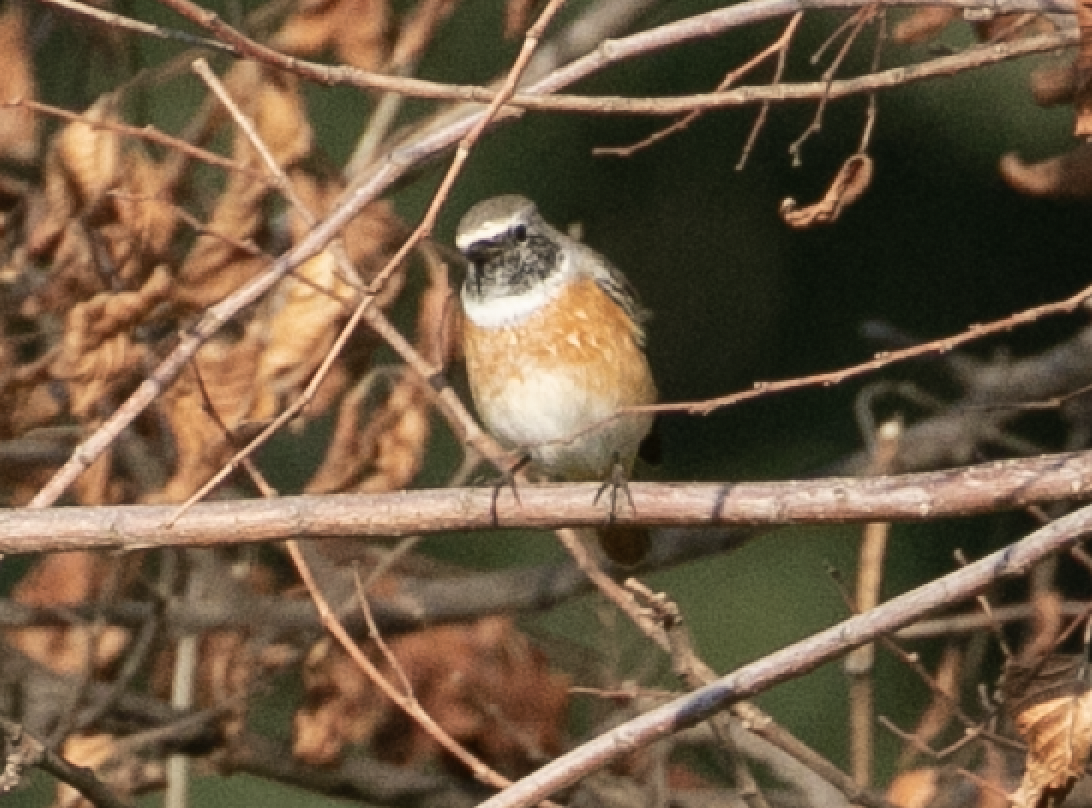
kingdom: Animalia
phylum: Chordata
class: Aves
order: Passeriformes
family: Muscicapidae
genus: Phoenicurus
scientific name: Phoenicurus phoenicurus
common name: Common redstart
